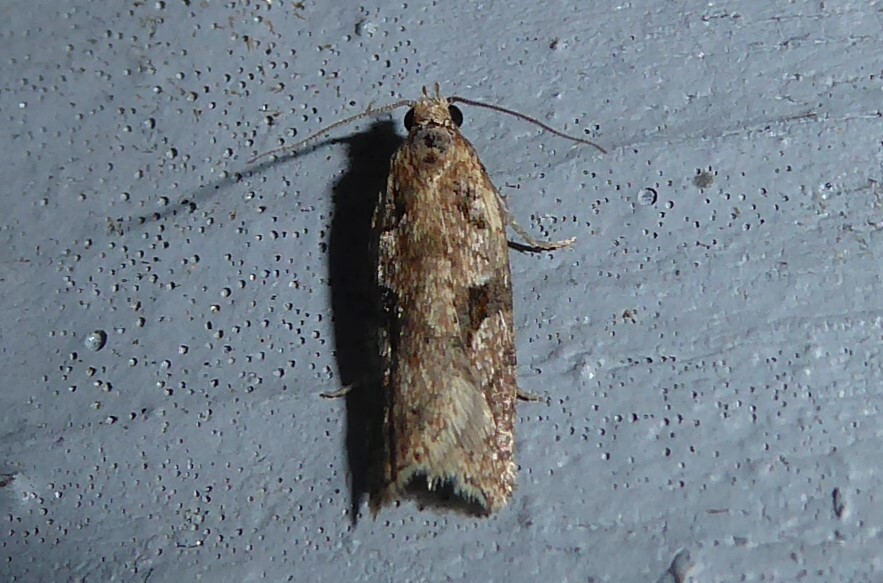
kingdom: Animalia
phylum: Arthropoda
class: Insecta
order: Lepidoptera
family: Tortricidae
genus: Capua
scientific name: Capua semiferana
